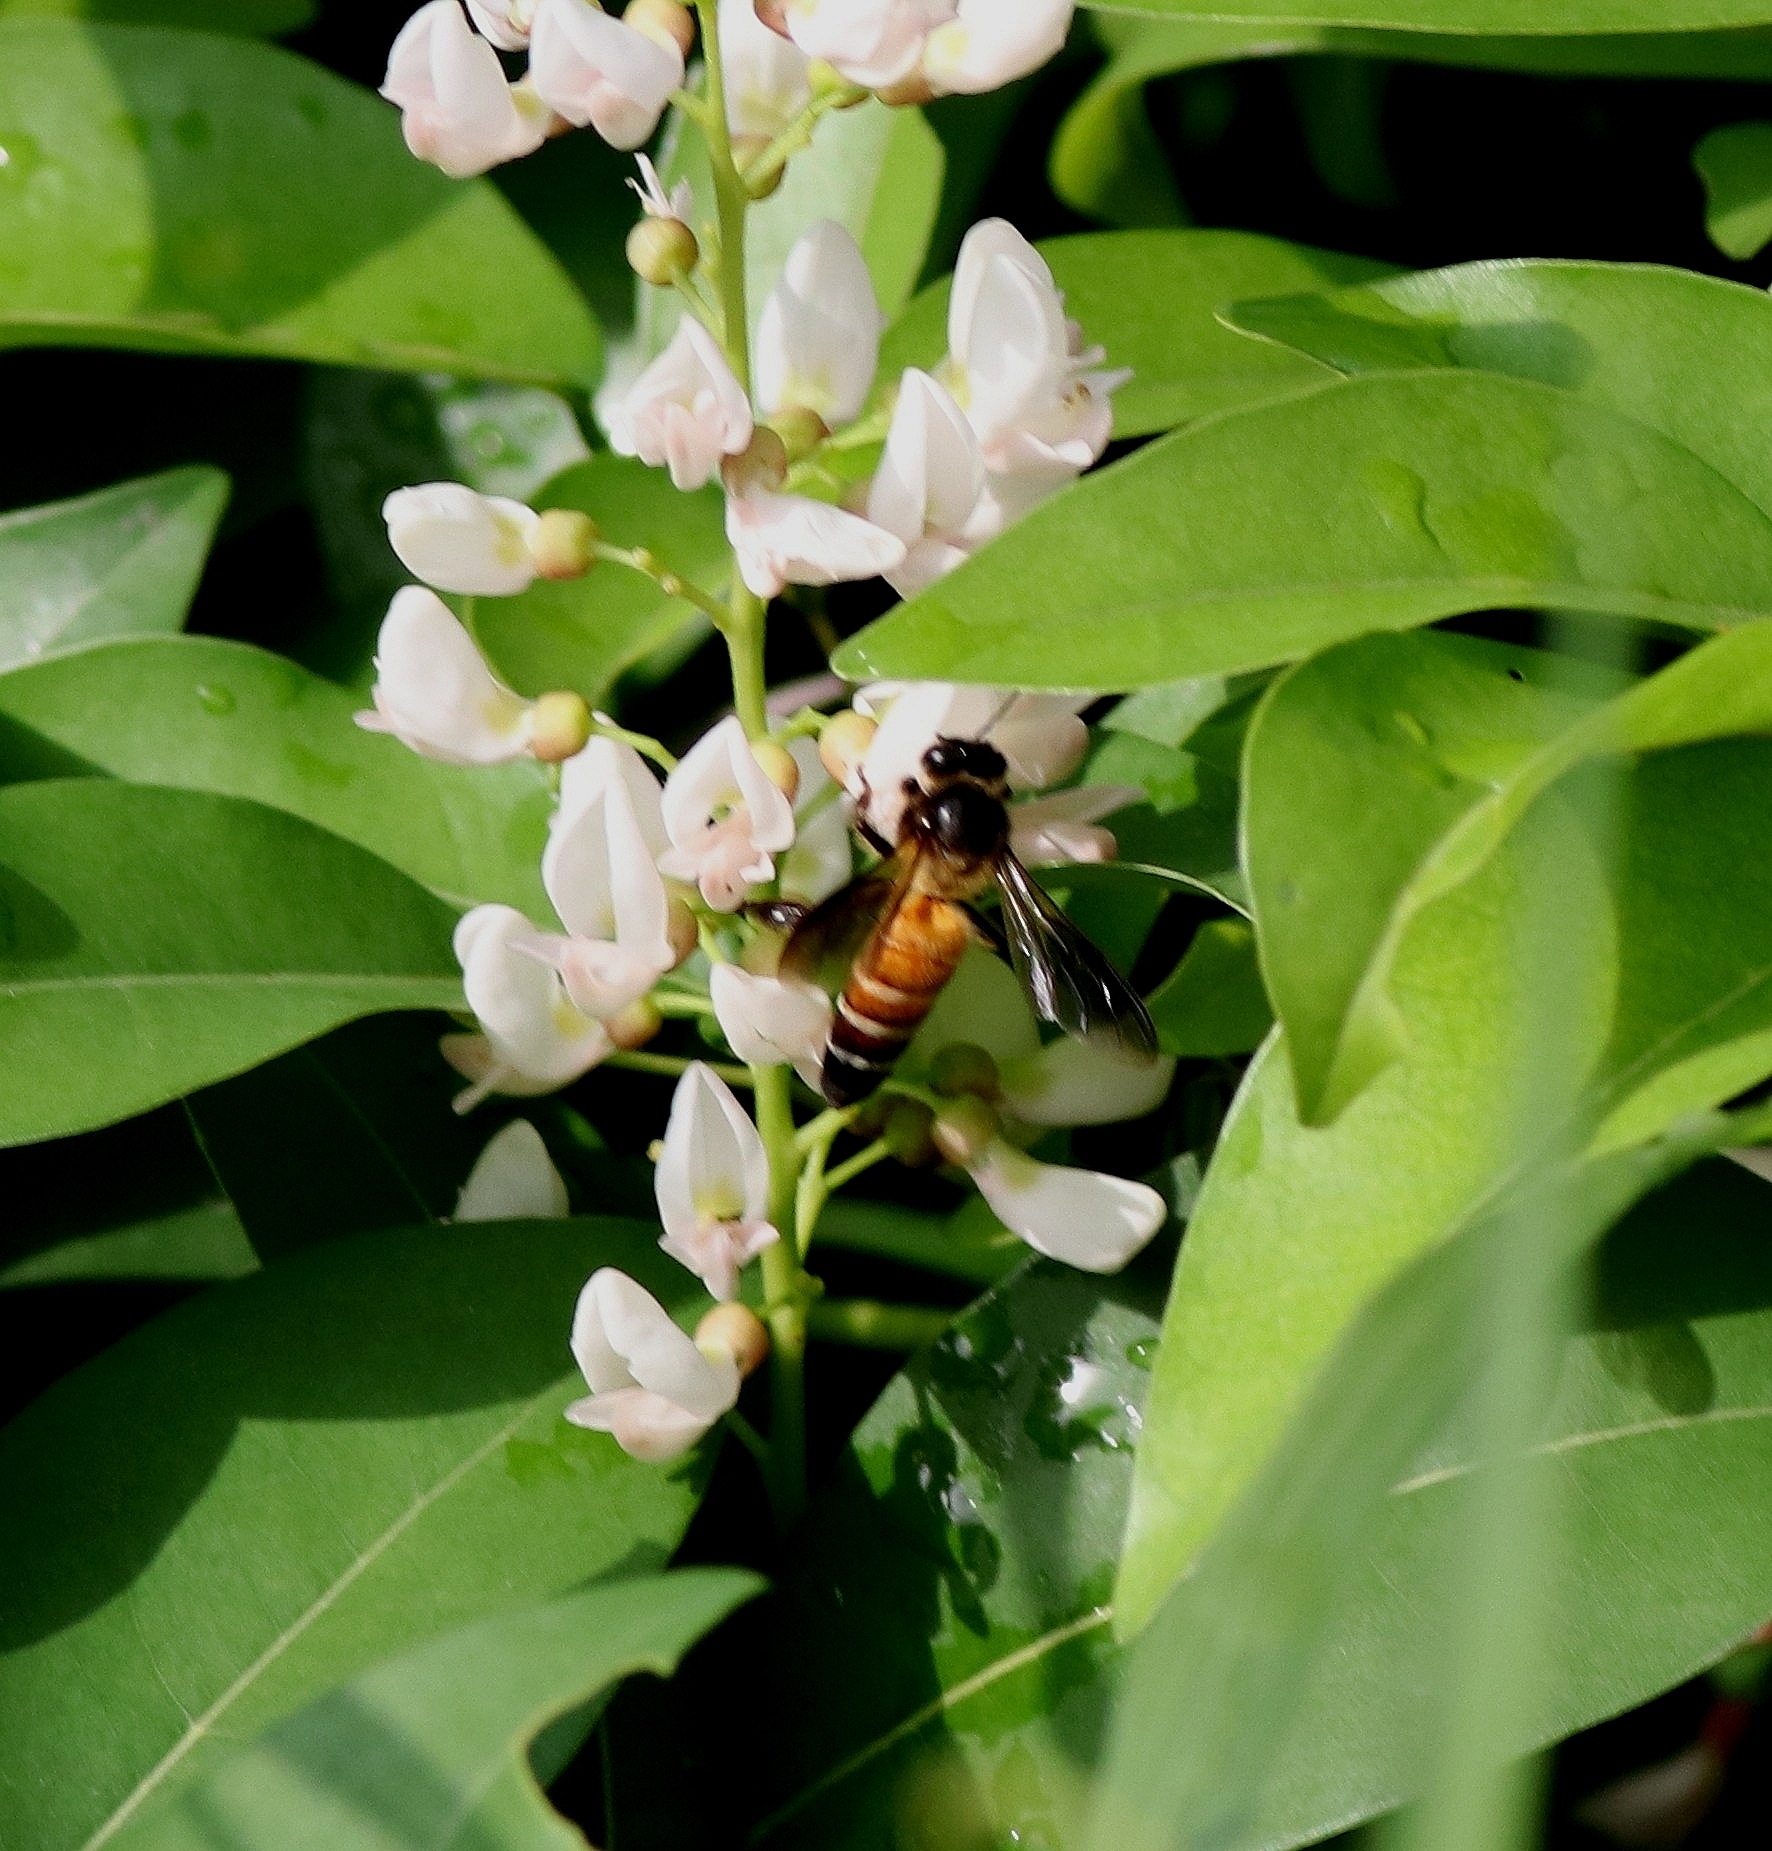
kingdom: Animalia
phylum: Arthropoda
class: Insecta
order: Hymenoptera
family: Apidae
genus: Apis
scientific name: Apis dorsata
